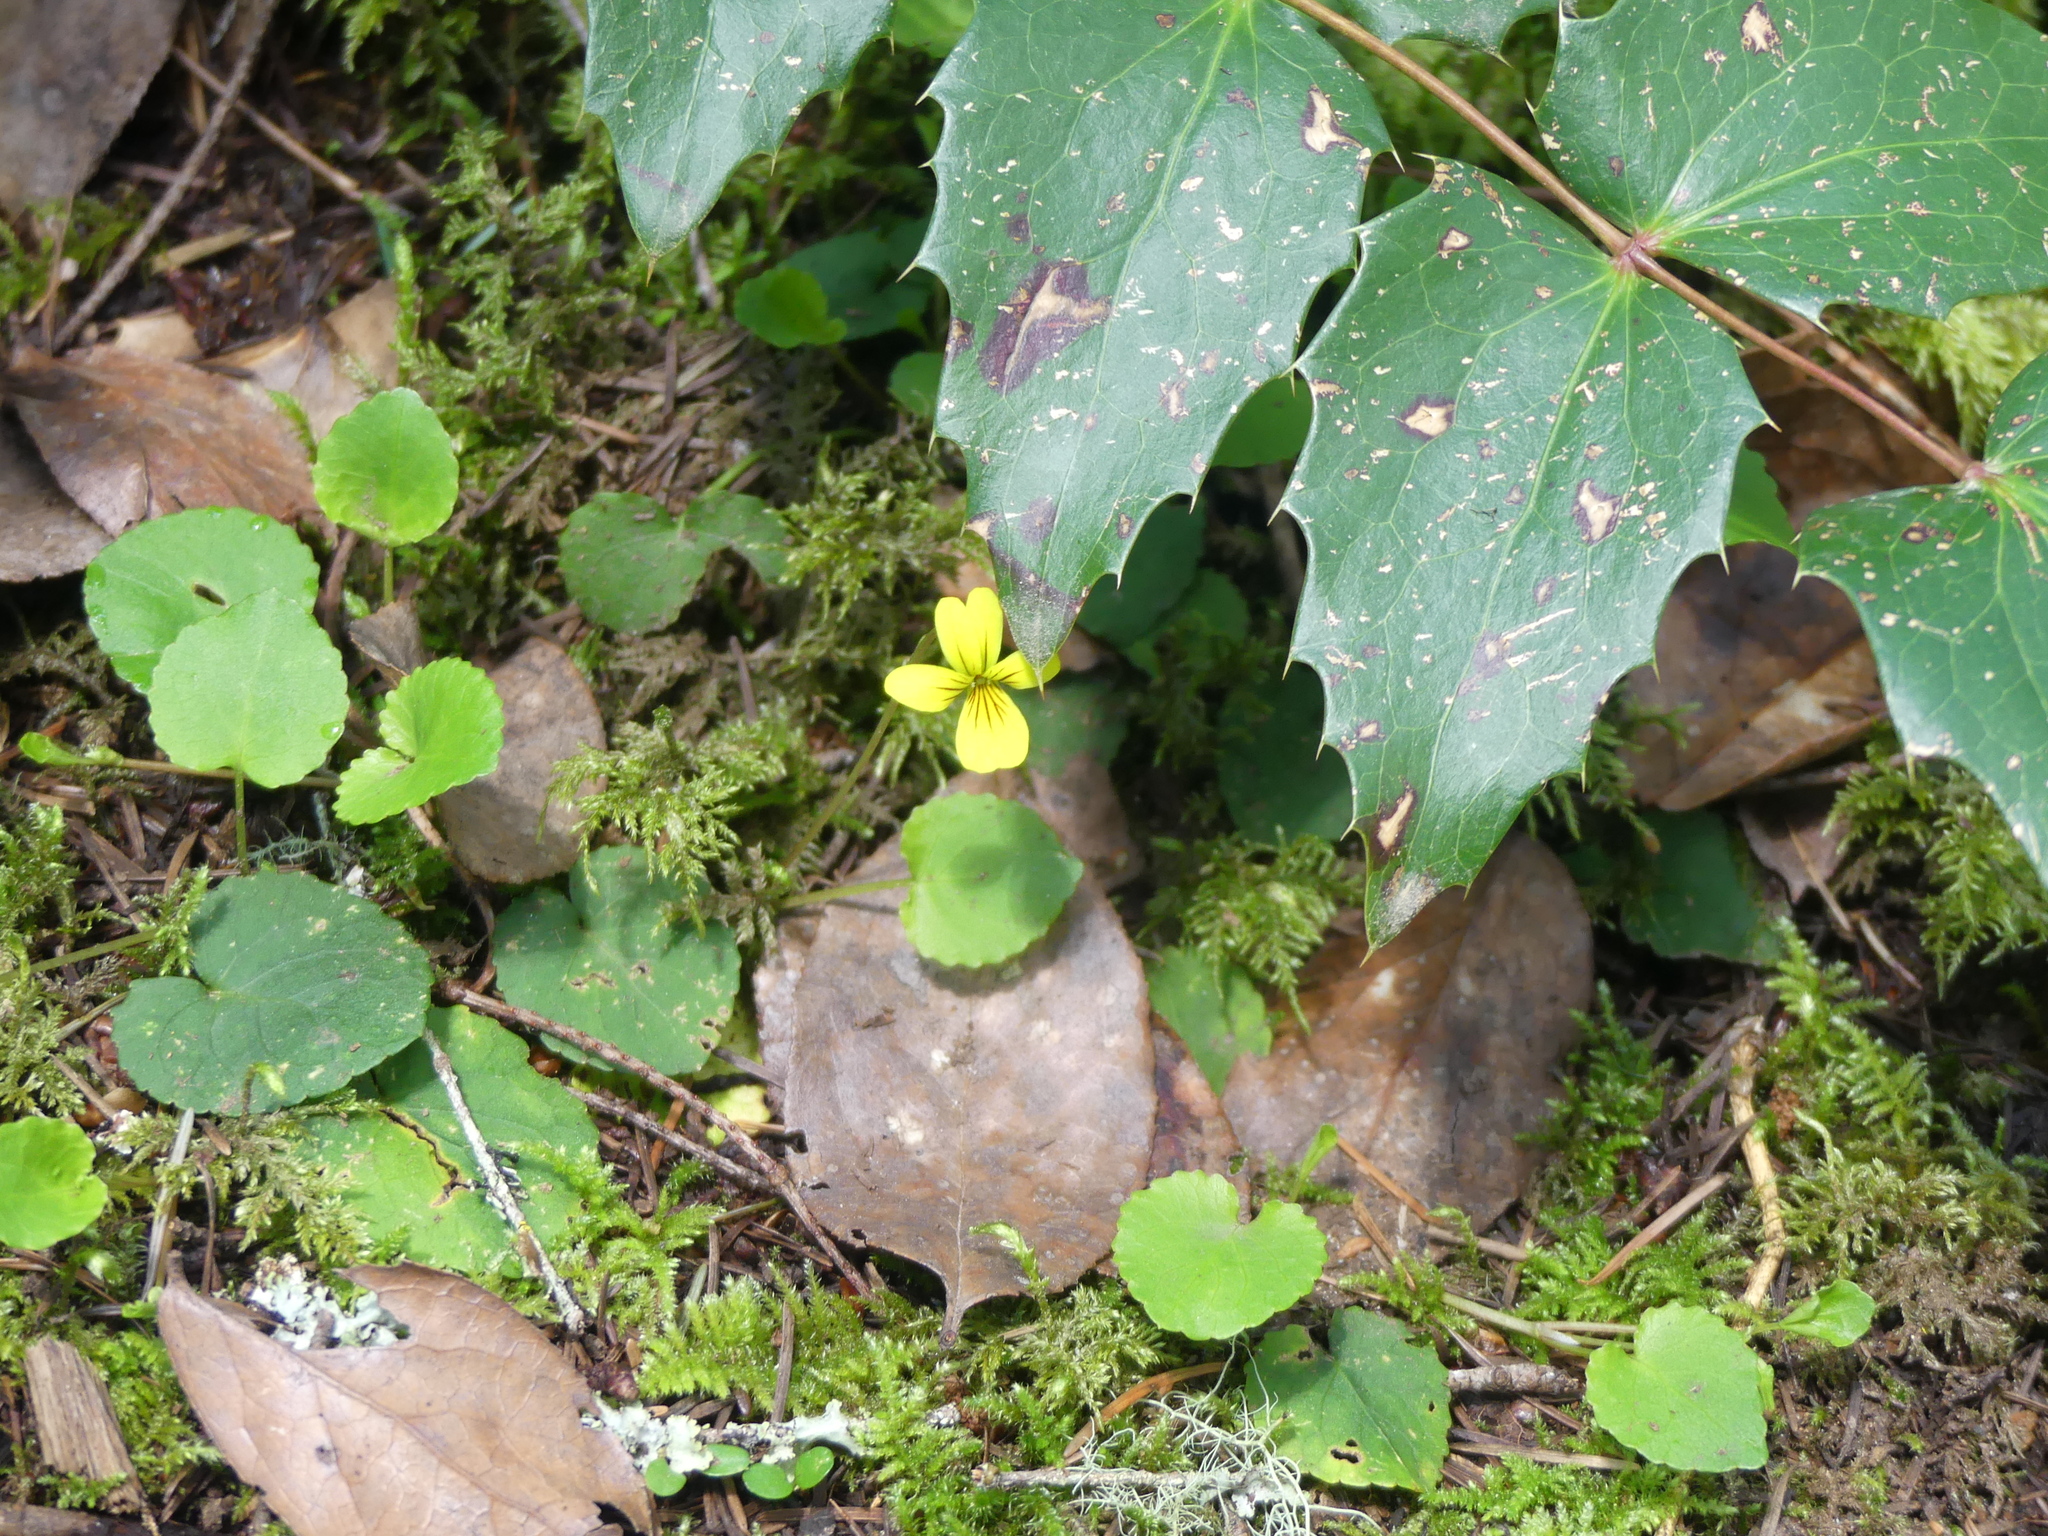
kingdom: Plantae
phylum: Tracheophyta
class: Magnoliopsida
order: Malpighiales
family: Violaceae
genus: Viola
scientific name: Viola sempervirens
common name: Evergreen violet
